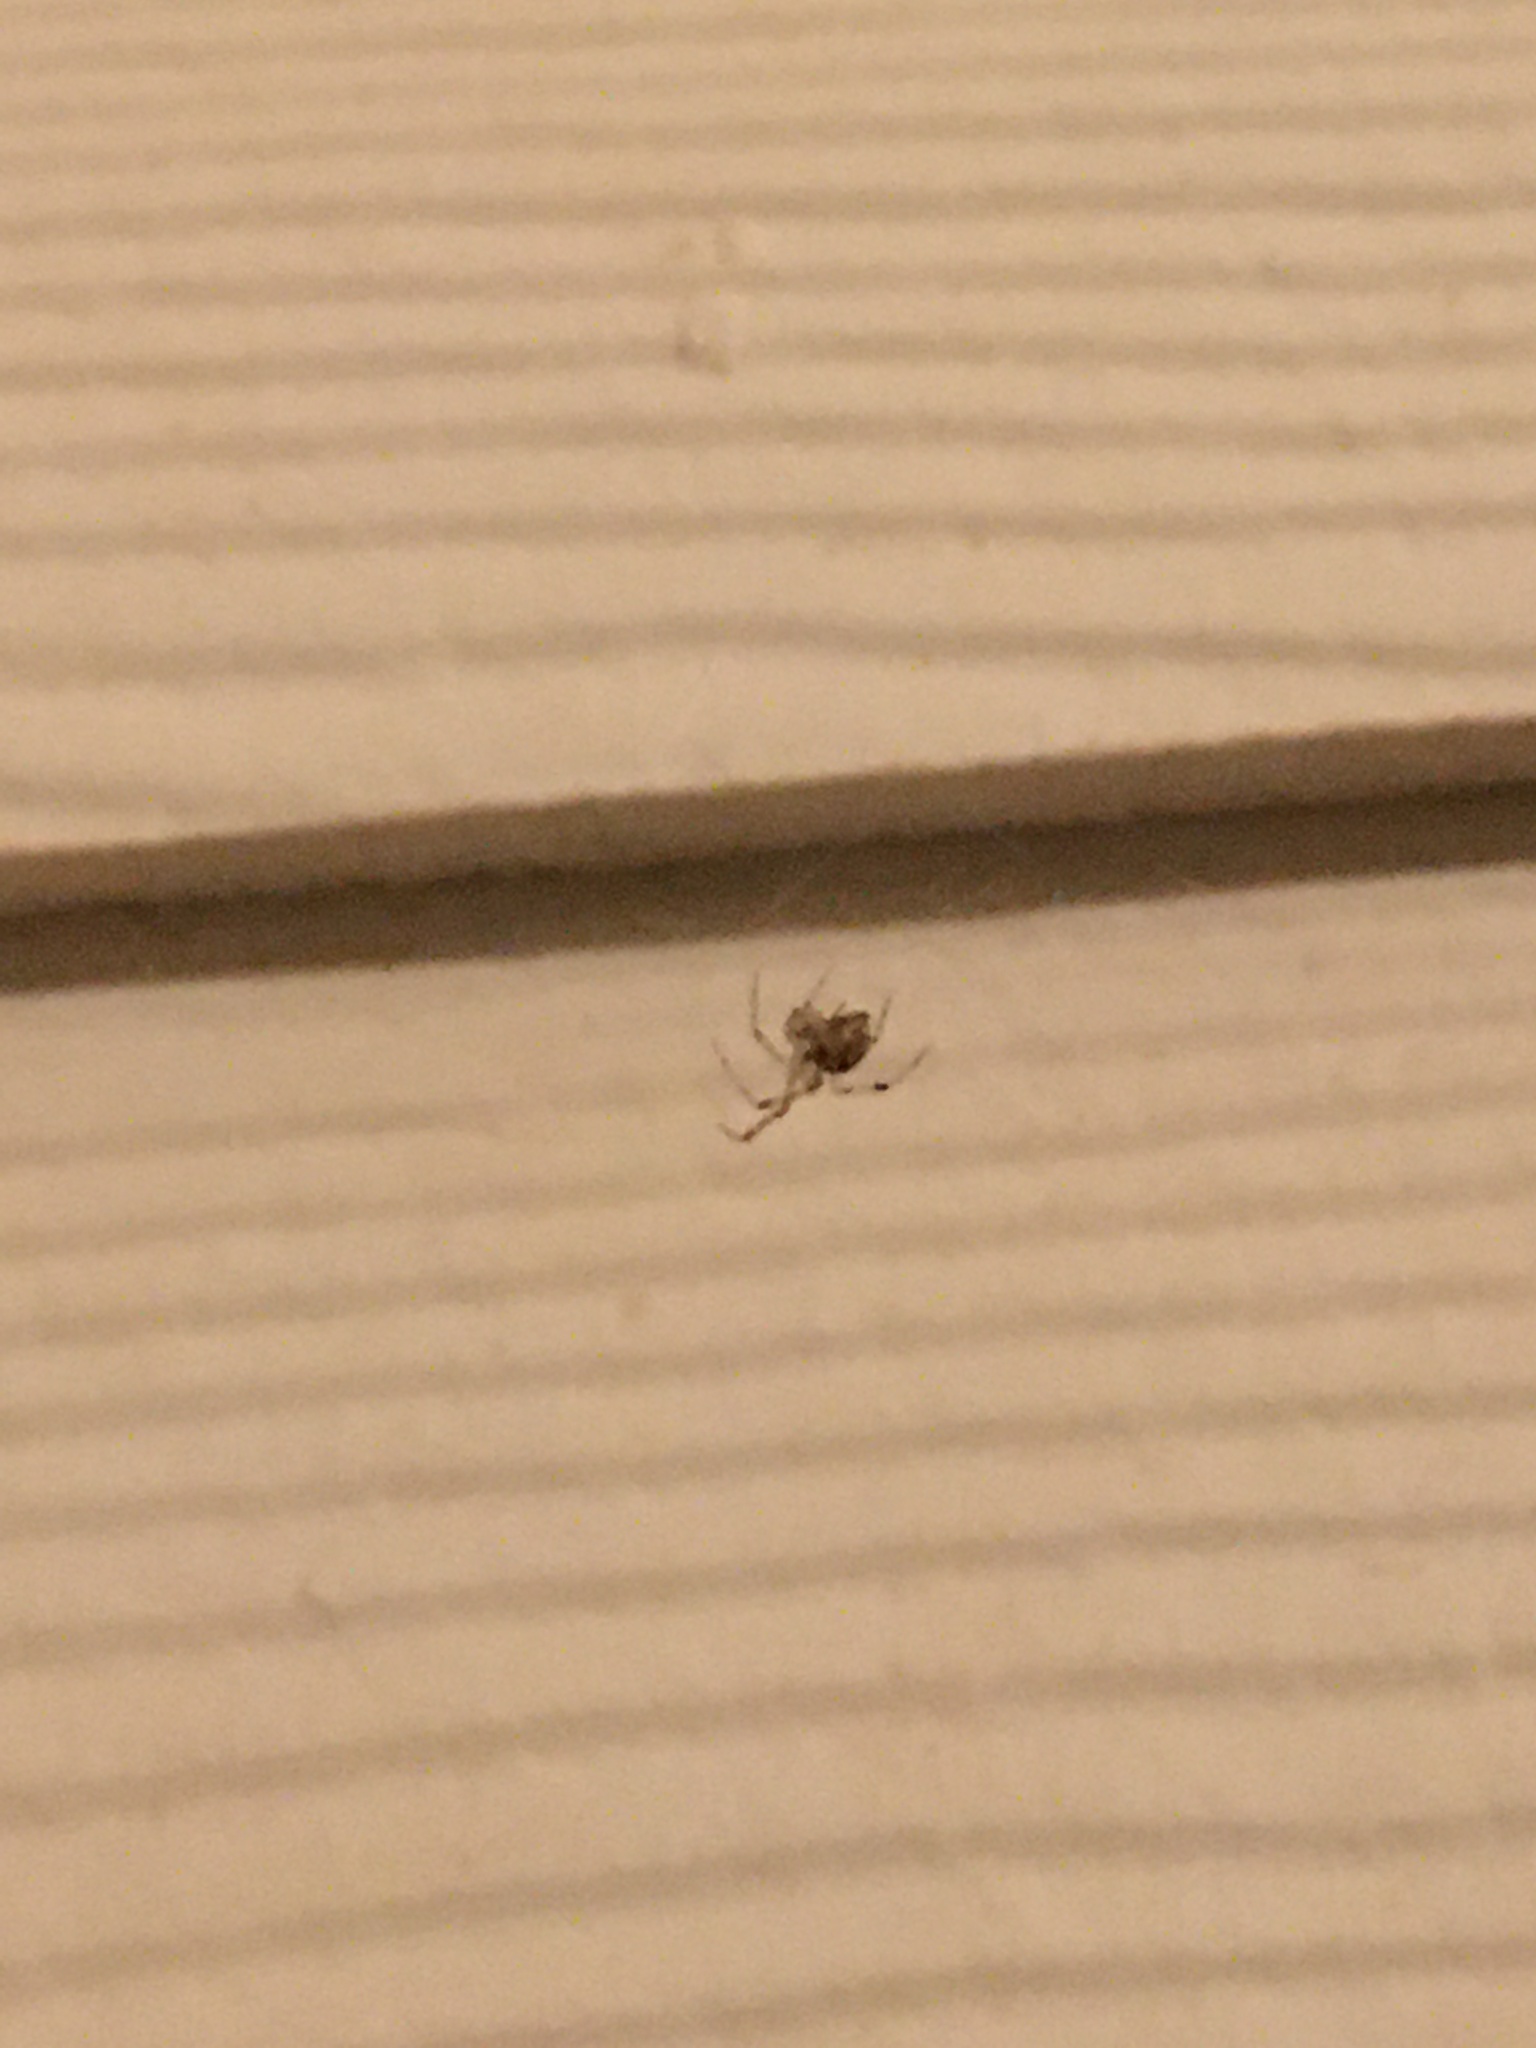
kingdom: Animalia
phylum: Arthropoda
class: Arachnida
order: Araneae
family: Theridiidae
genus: Parasteatoda
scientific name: Parasteatoda tepidariorum
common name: Common house spider
